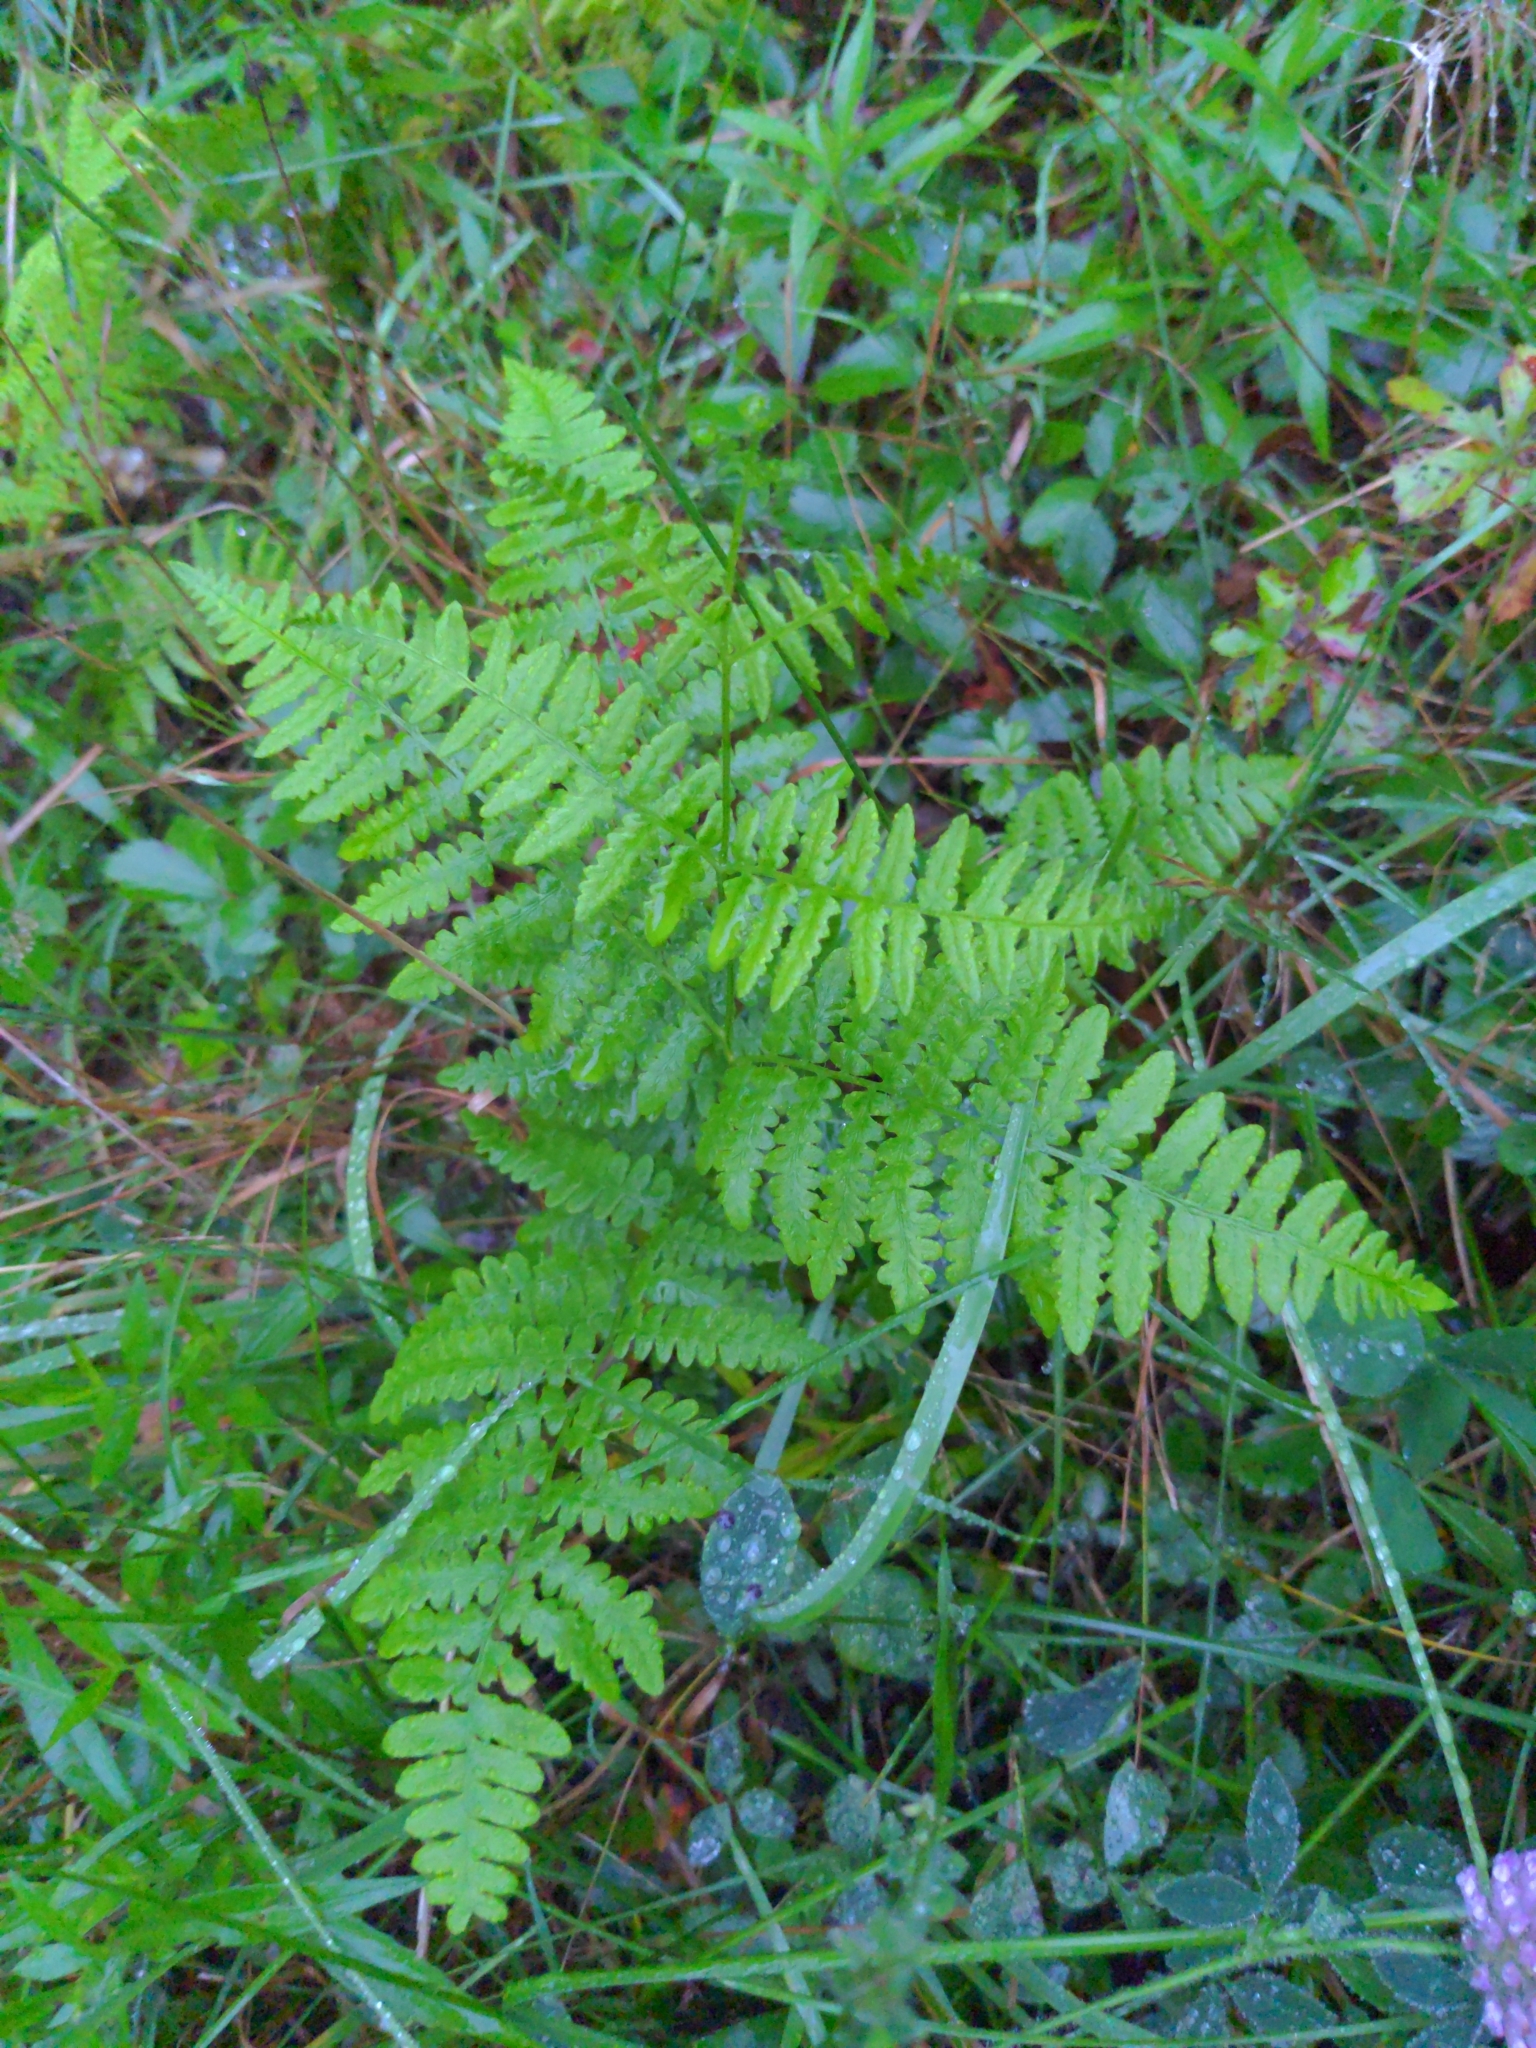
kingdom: Plantae
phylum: Tracheophyta
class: Polypodiopsida
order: Polypodiales
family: Dennstaedtiaceae
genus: Pteridium
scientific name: Pteridium aquilinum
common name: Bracken
